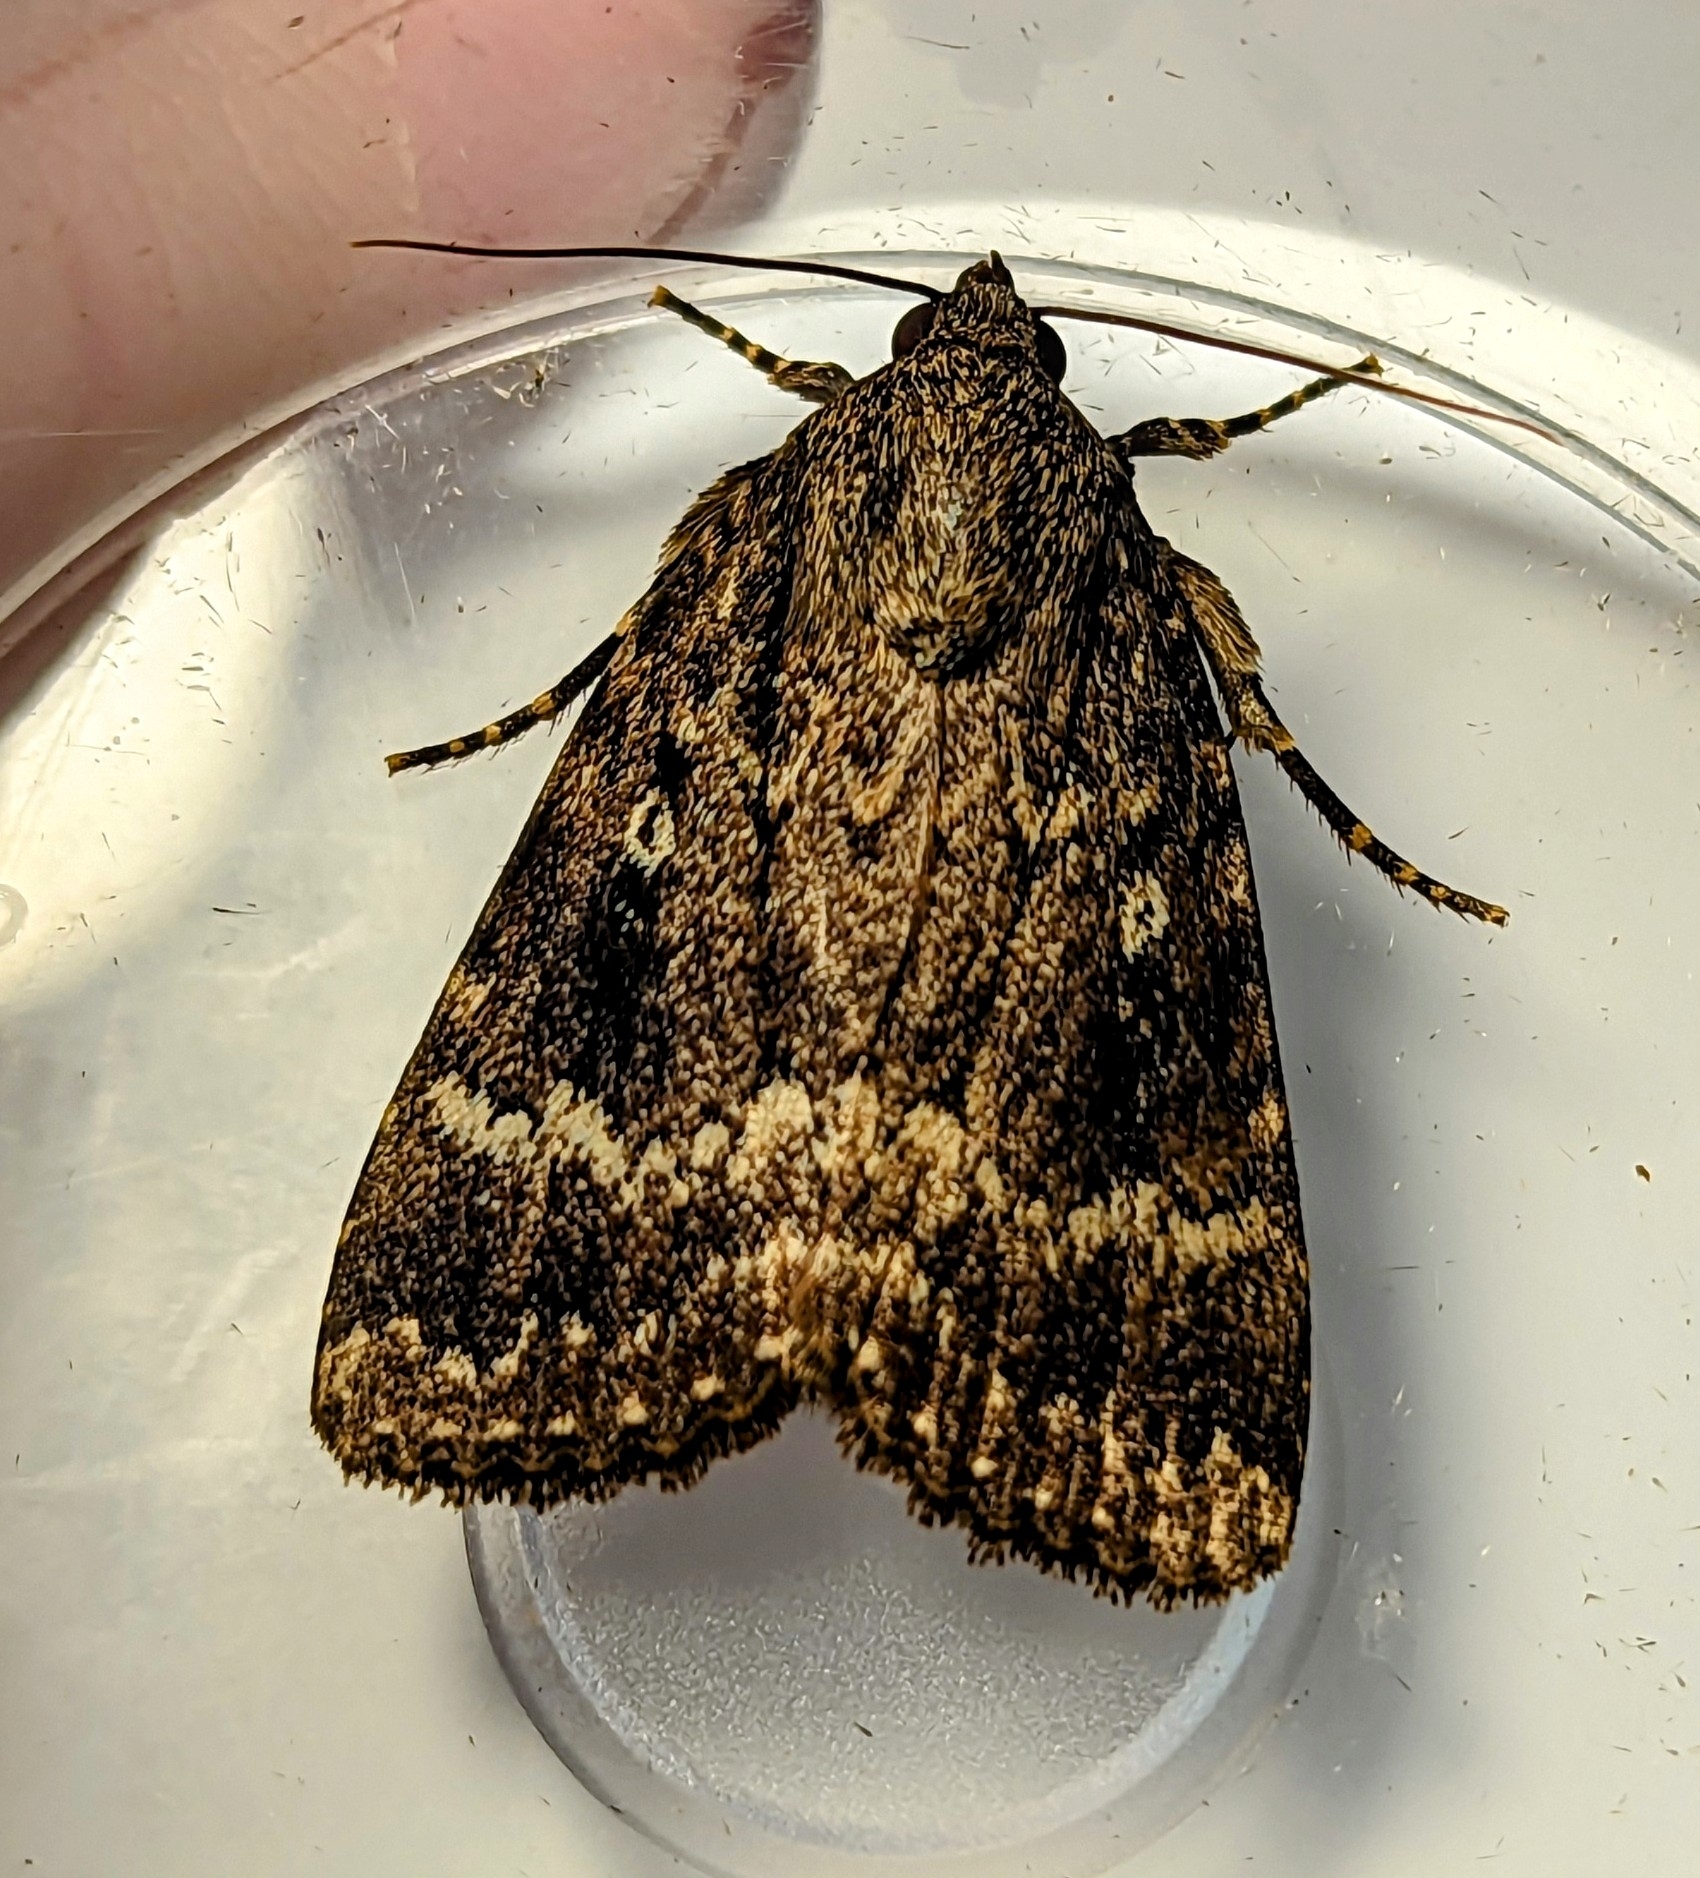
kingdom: Animalia
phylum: Arthropoda
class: Insecta
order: Lepidoptera
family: Noctuidae
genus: Amphipyra
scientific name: Amphipyra pyramidea
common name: Copper underwing
